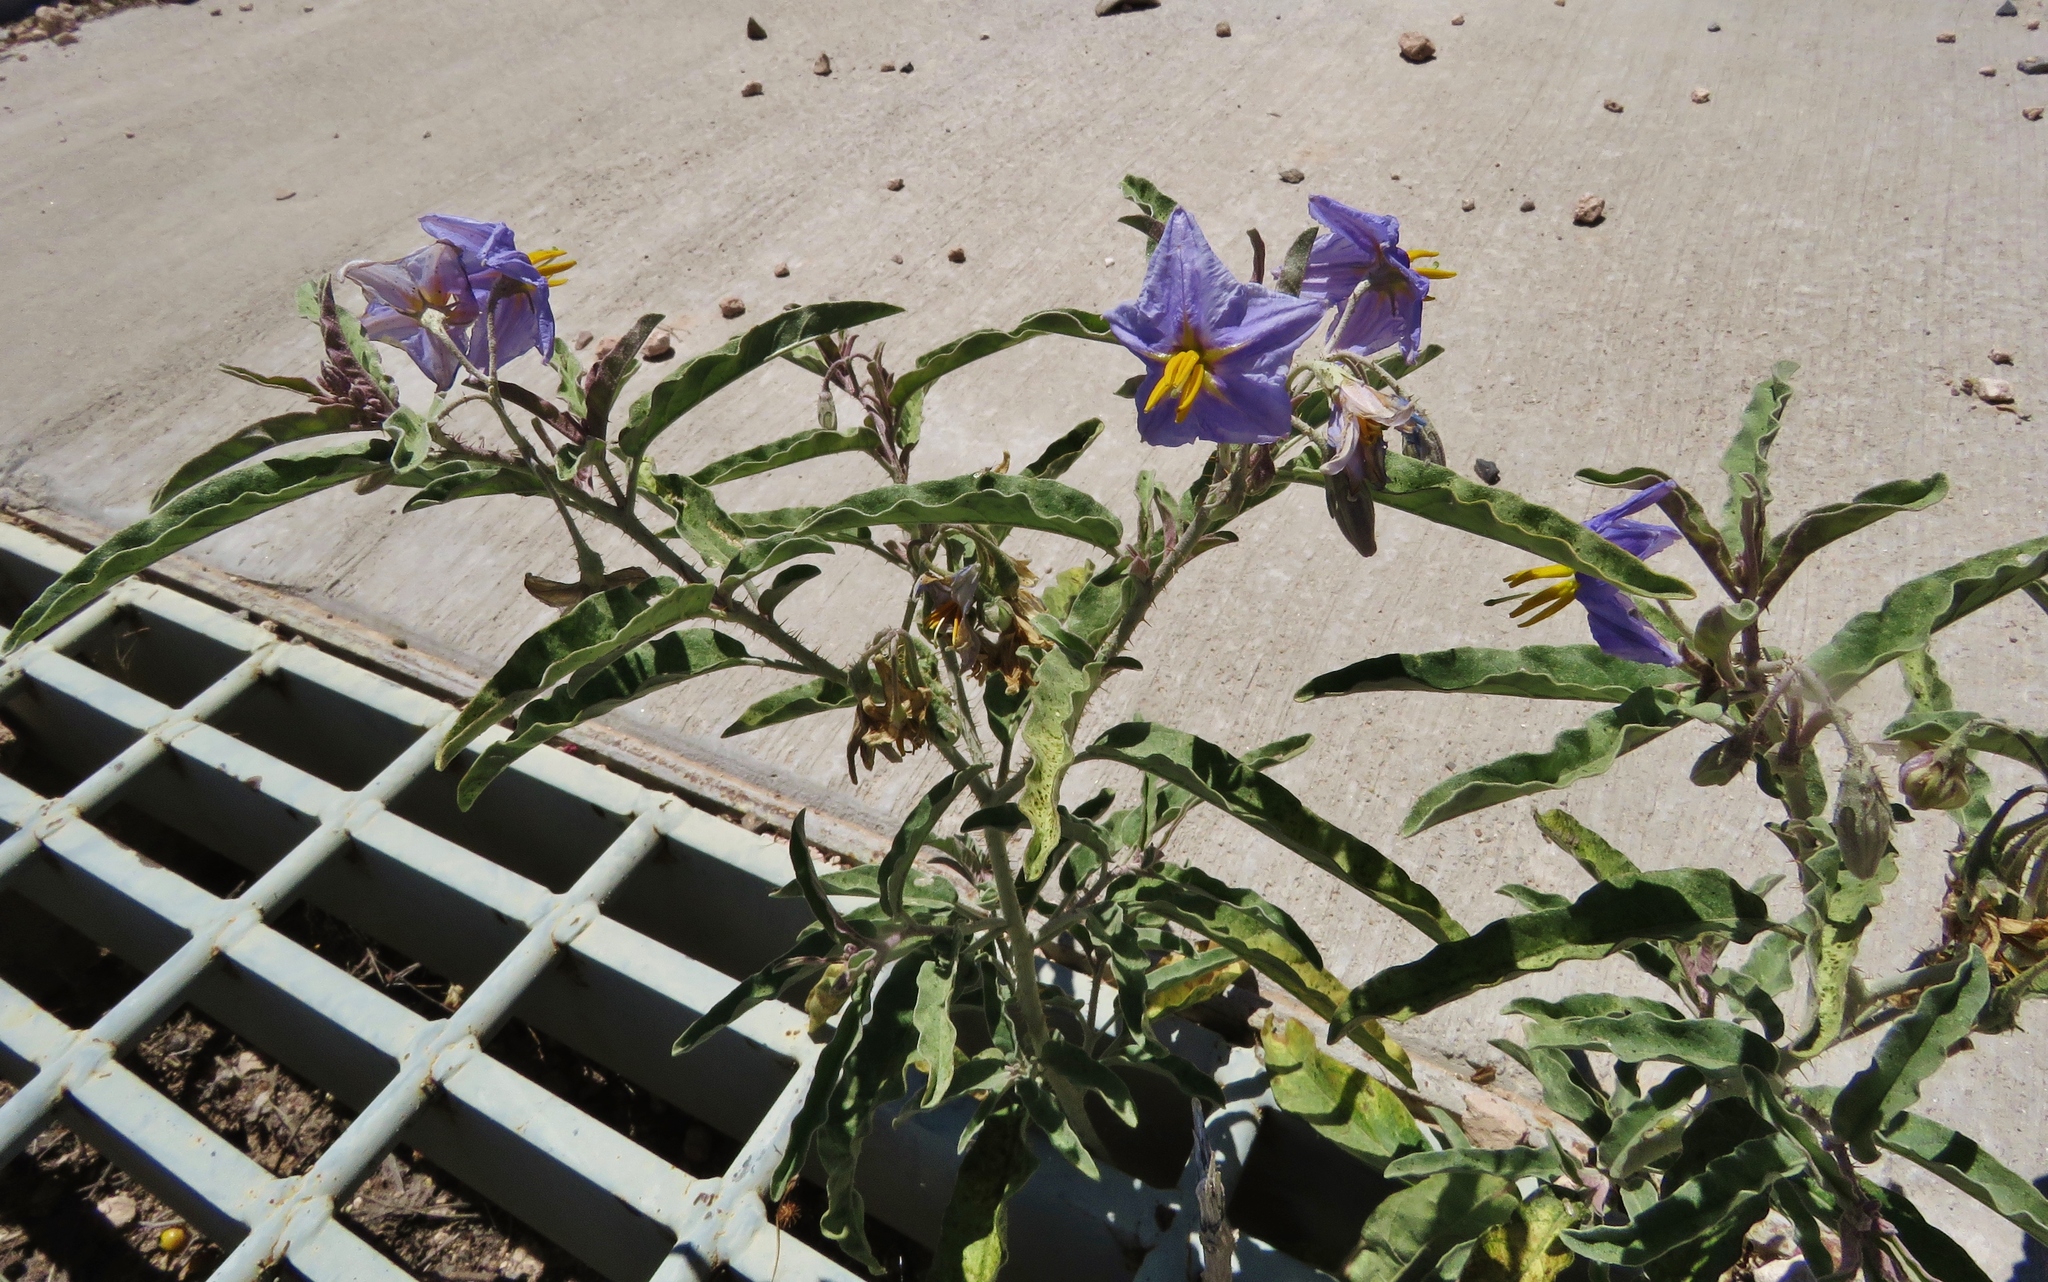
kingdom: Plantae
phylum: Tracheophyta
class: Magnoliopsida
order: Solanales
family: Solanaceae
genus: Solanum
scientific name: Solanum elaeagnifolium
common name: Silverleaf nightshade
